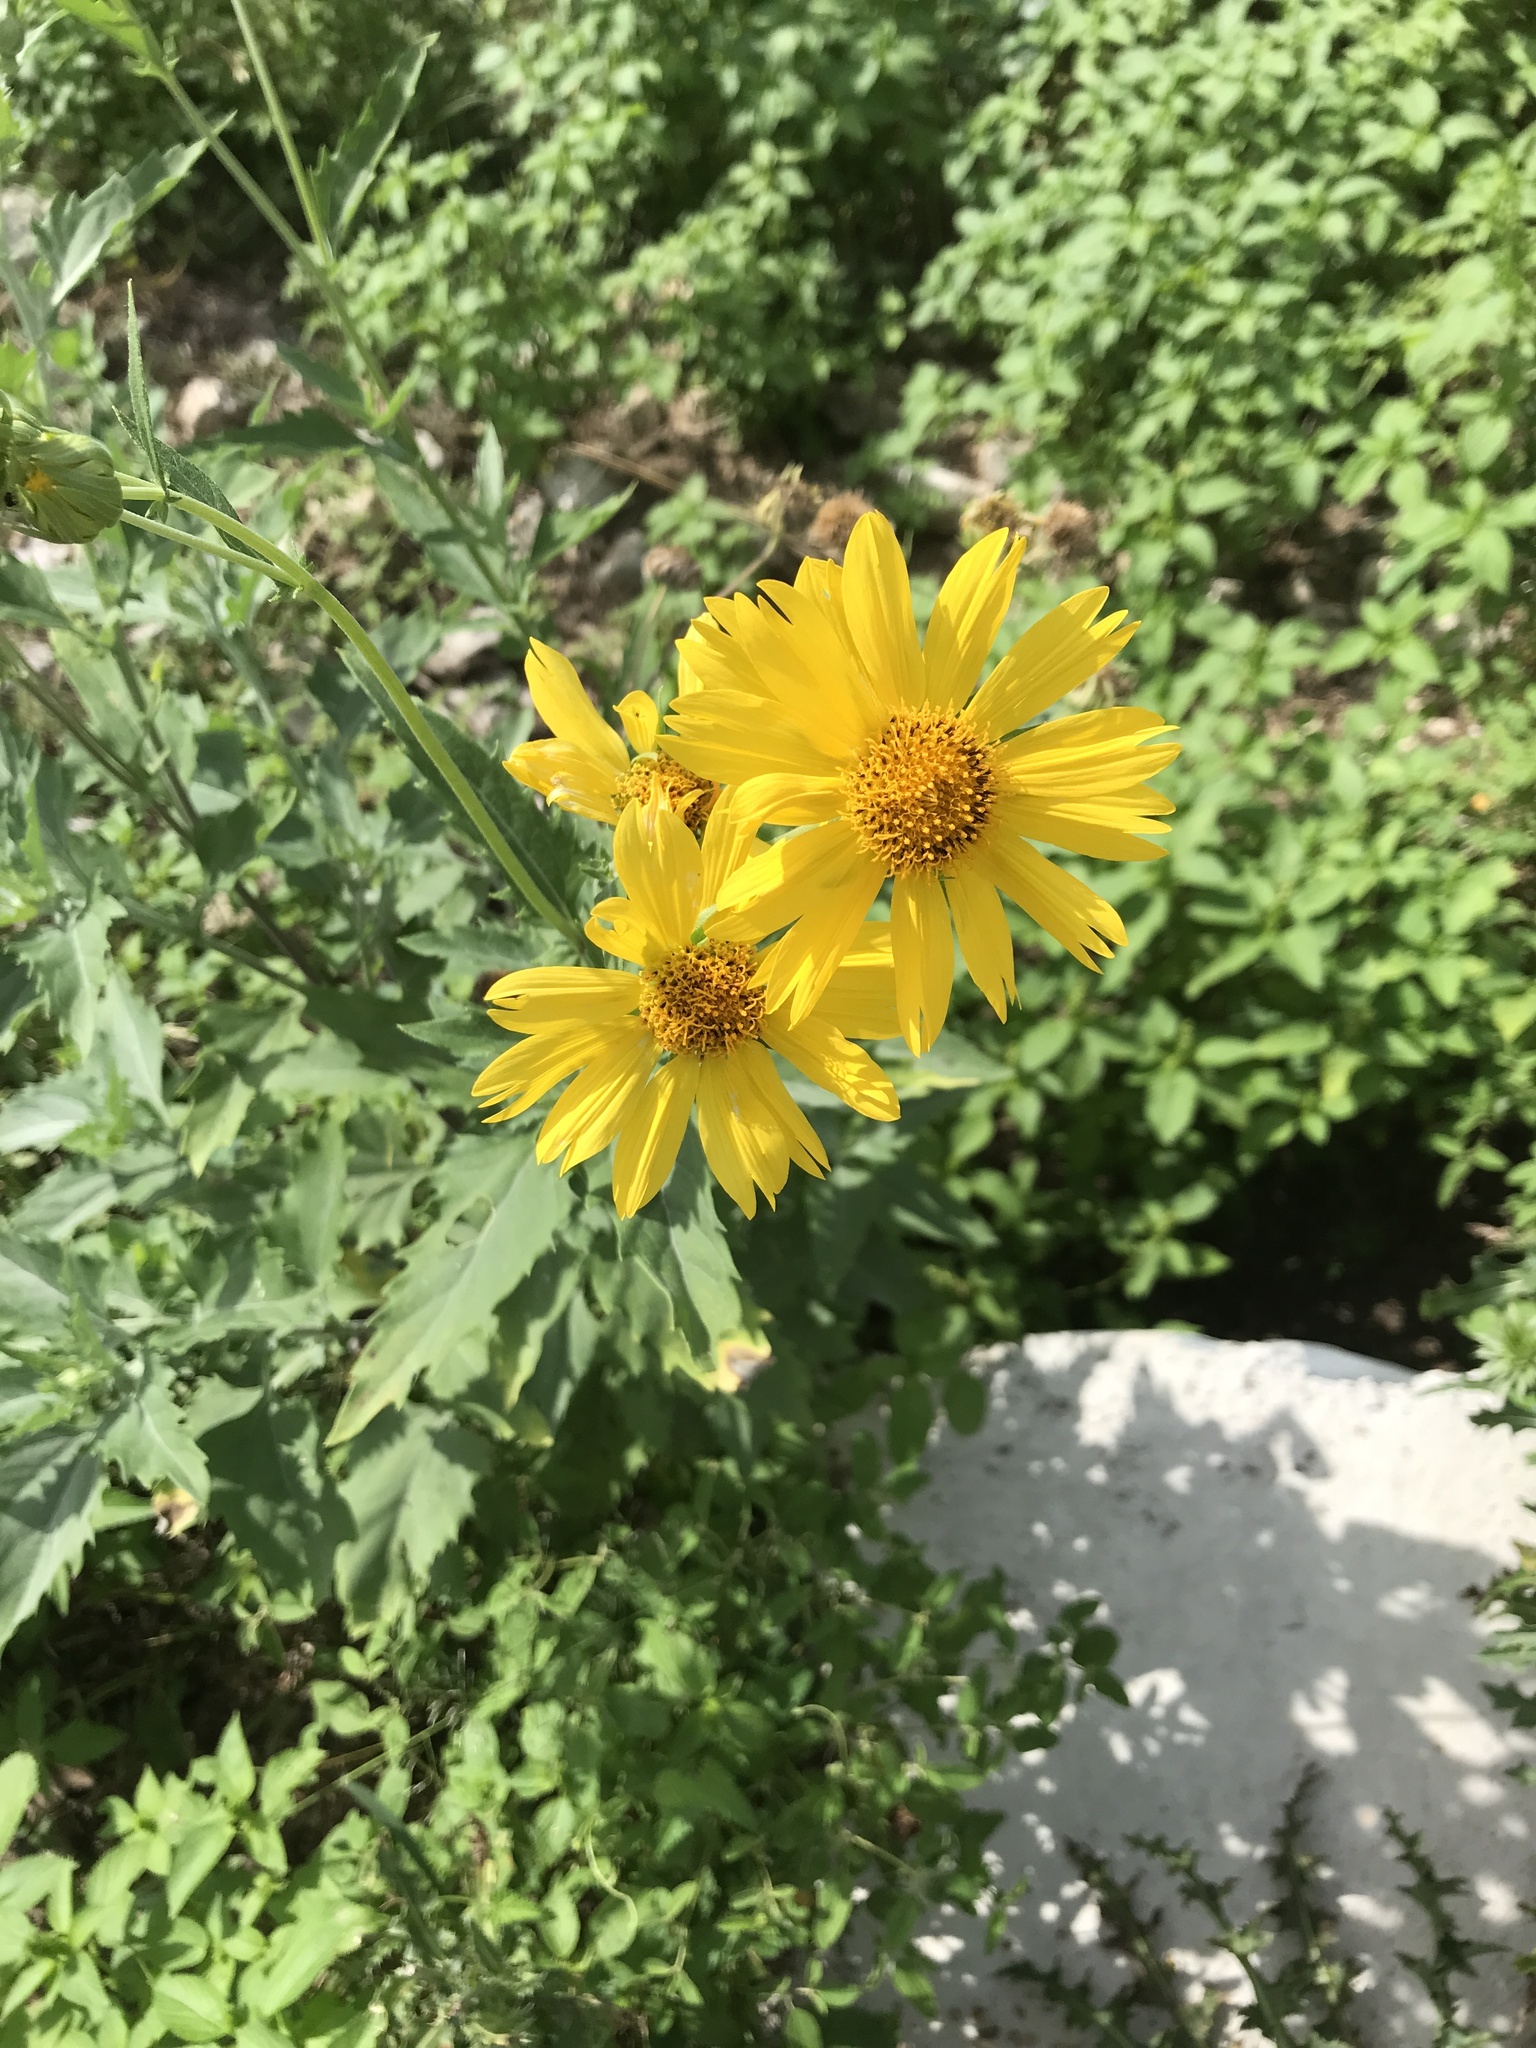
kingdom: Plantae
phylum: Tracheophyta
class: Magnoliopsida
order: Asterales
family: Asteraceae
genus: Verbesina
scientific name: Verbesina encelioides
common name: Golden crownbeard
